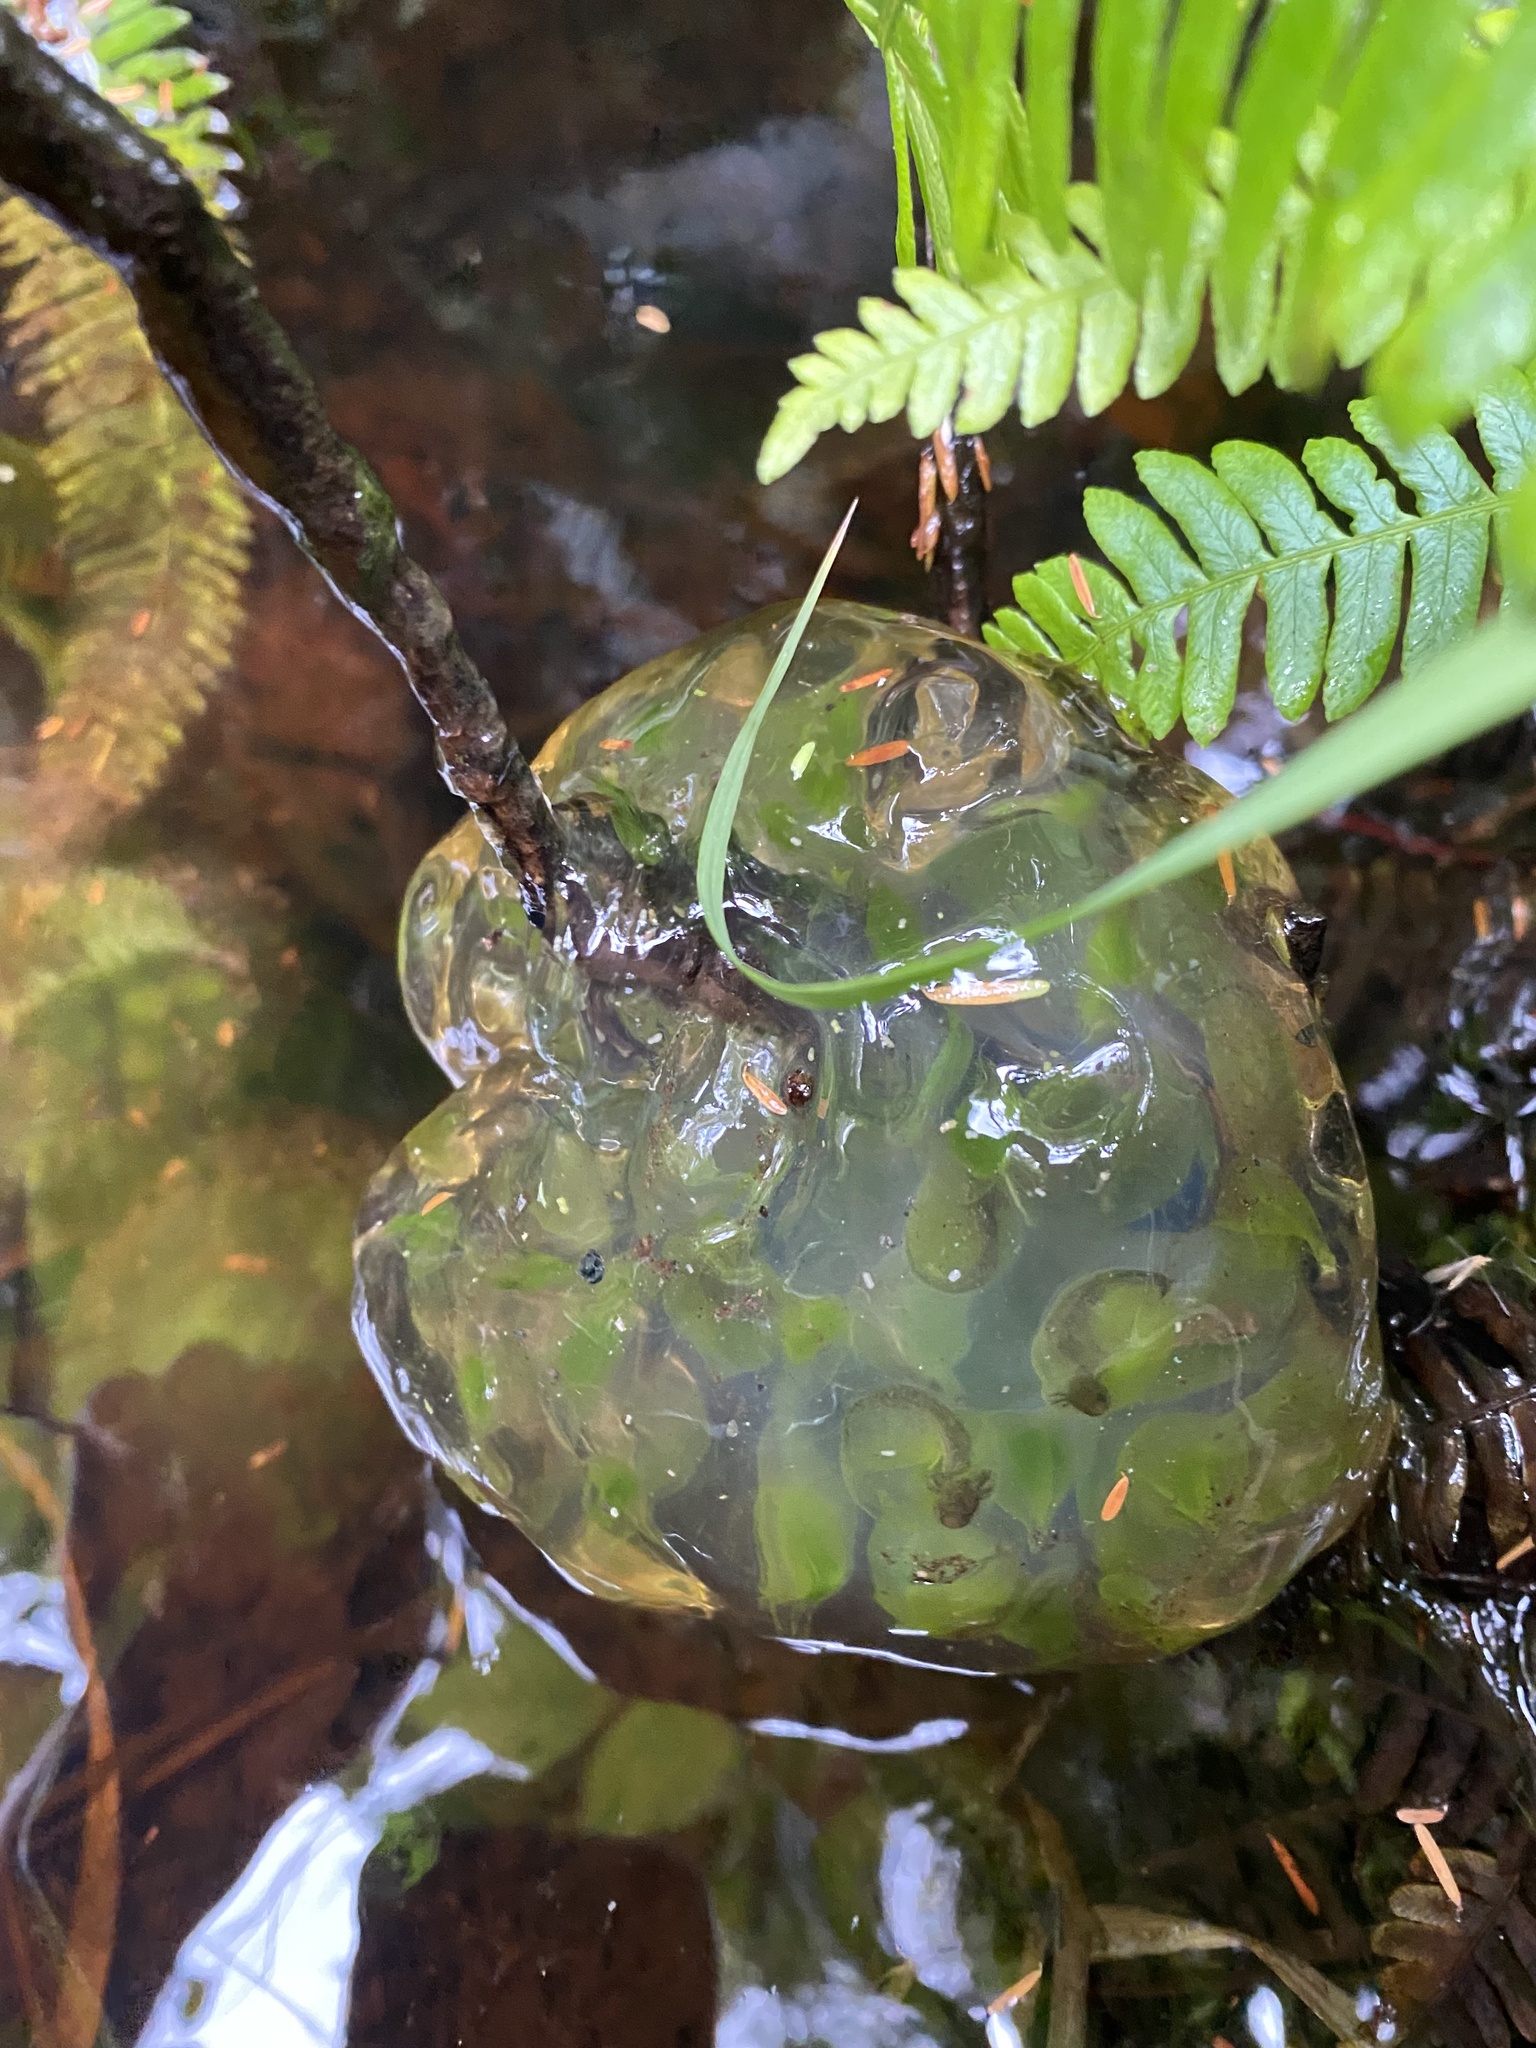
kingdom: Animalia
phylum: Chordata
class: Amphibia
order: Caudata
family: Ambystomatidae
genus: Ambystoma
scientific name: Ambystoma gracile
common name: Northwestern salamander
